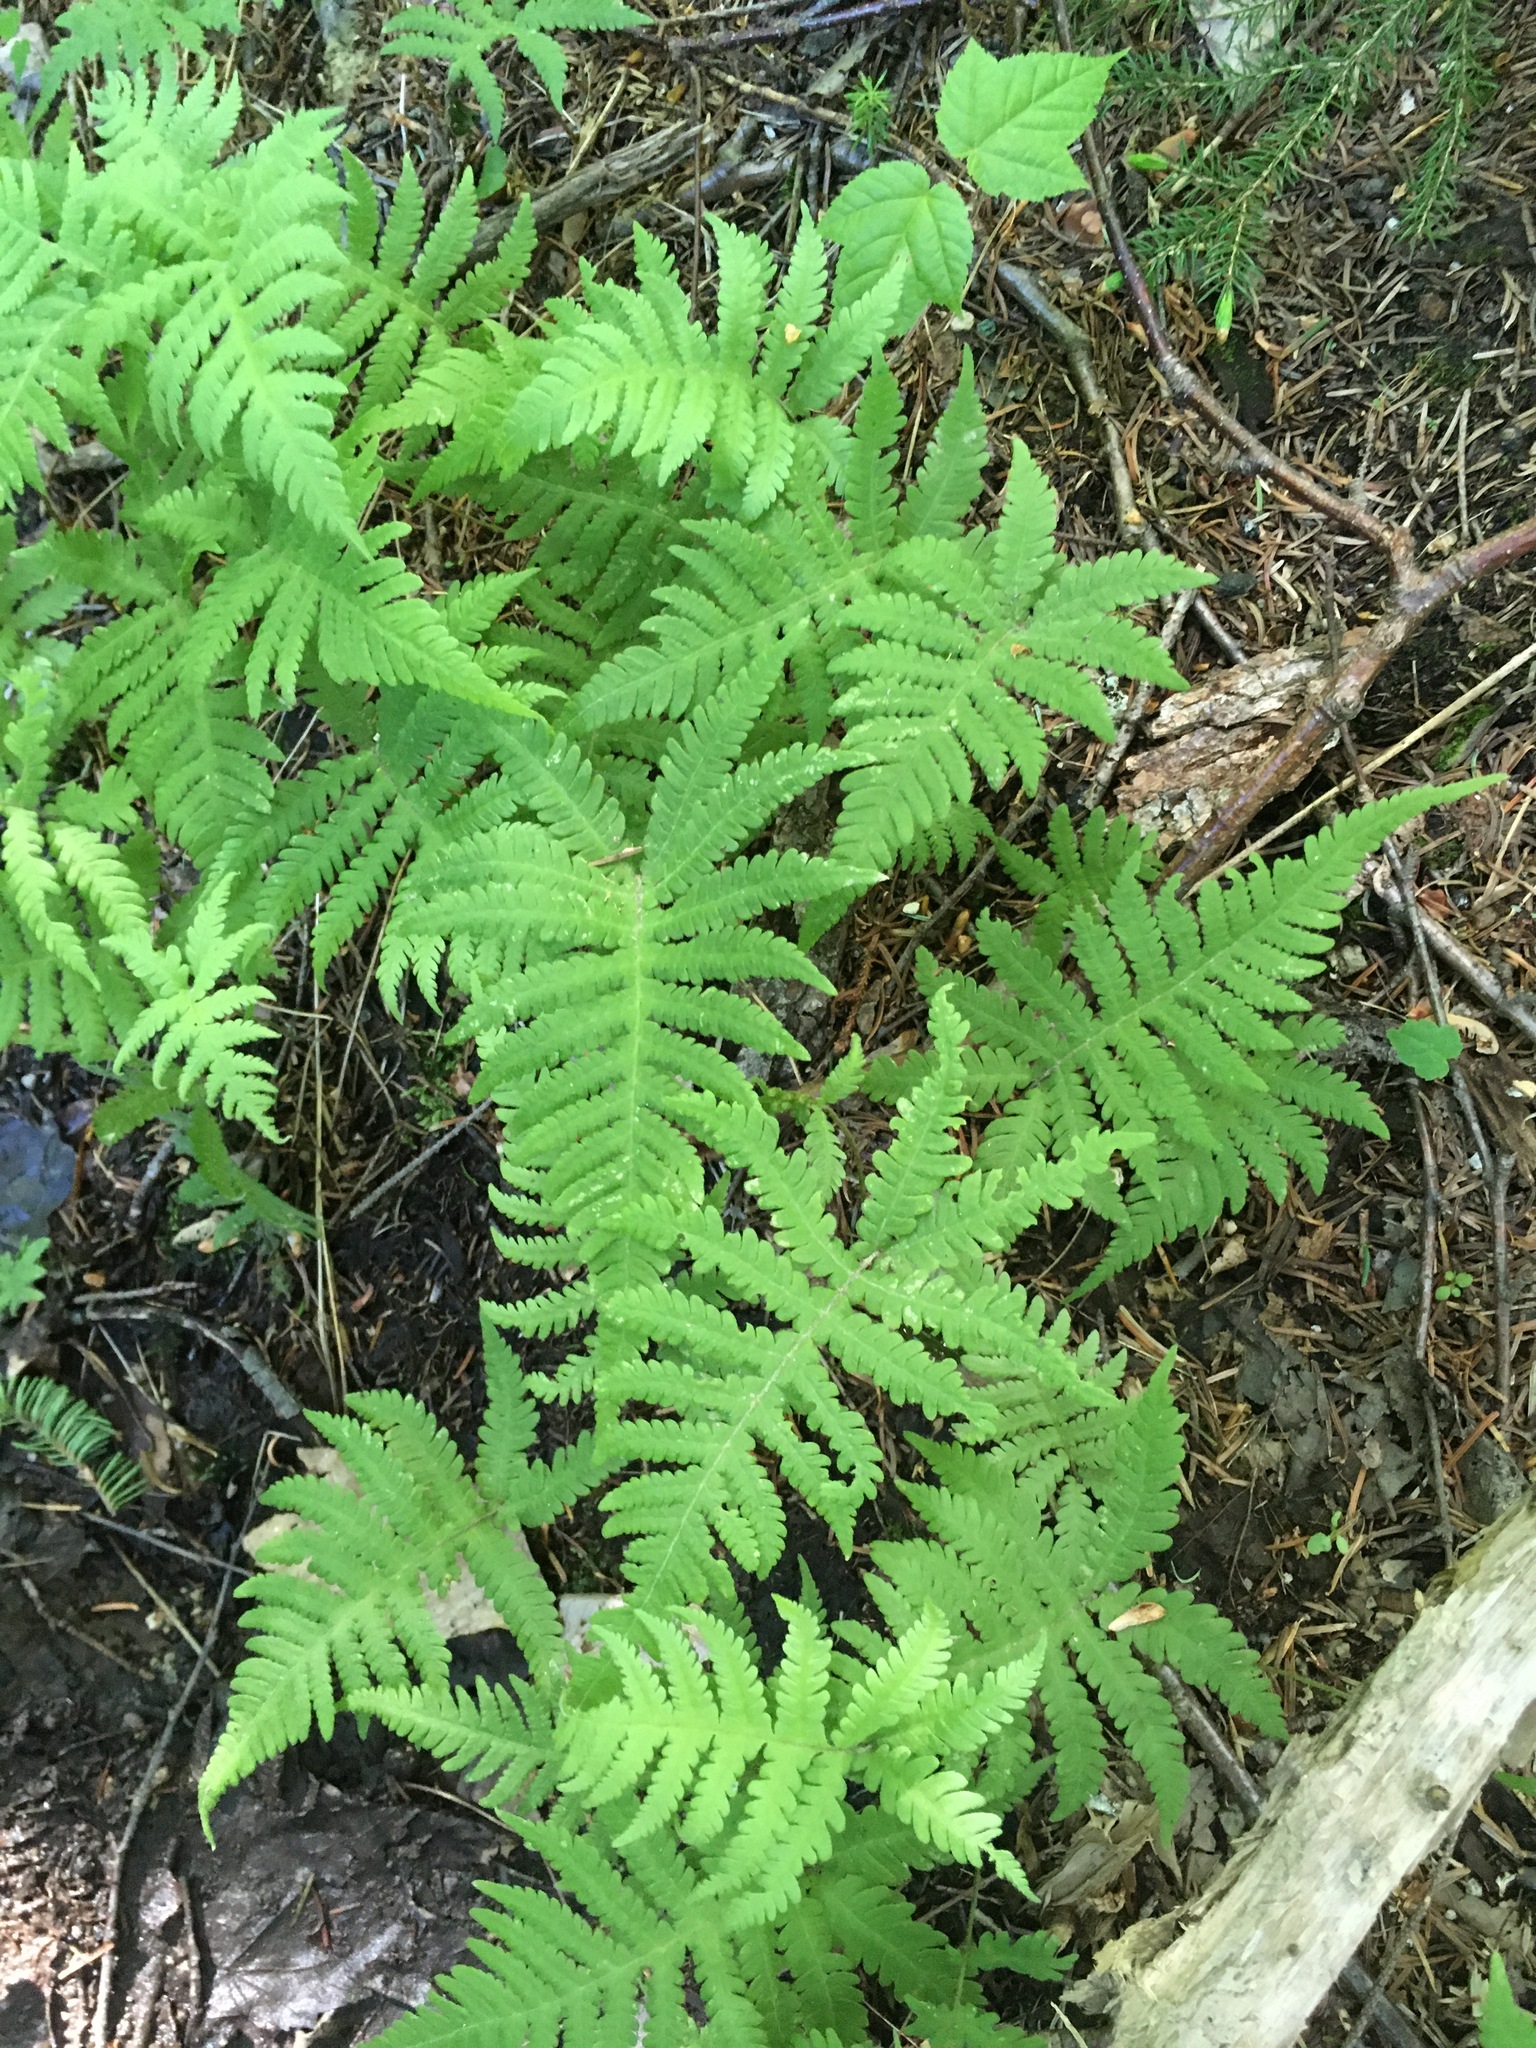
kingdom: Plantae
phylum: Tracheophyta
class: Polypodiopsida
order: Polypodiales
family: Thelypteridaceae
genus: Phegopteris
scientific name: Phegopteris connectilis
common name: Beech fern
